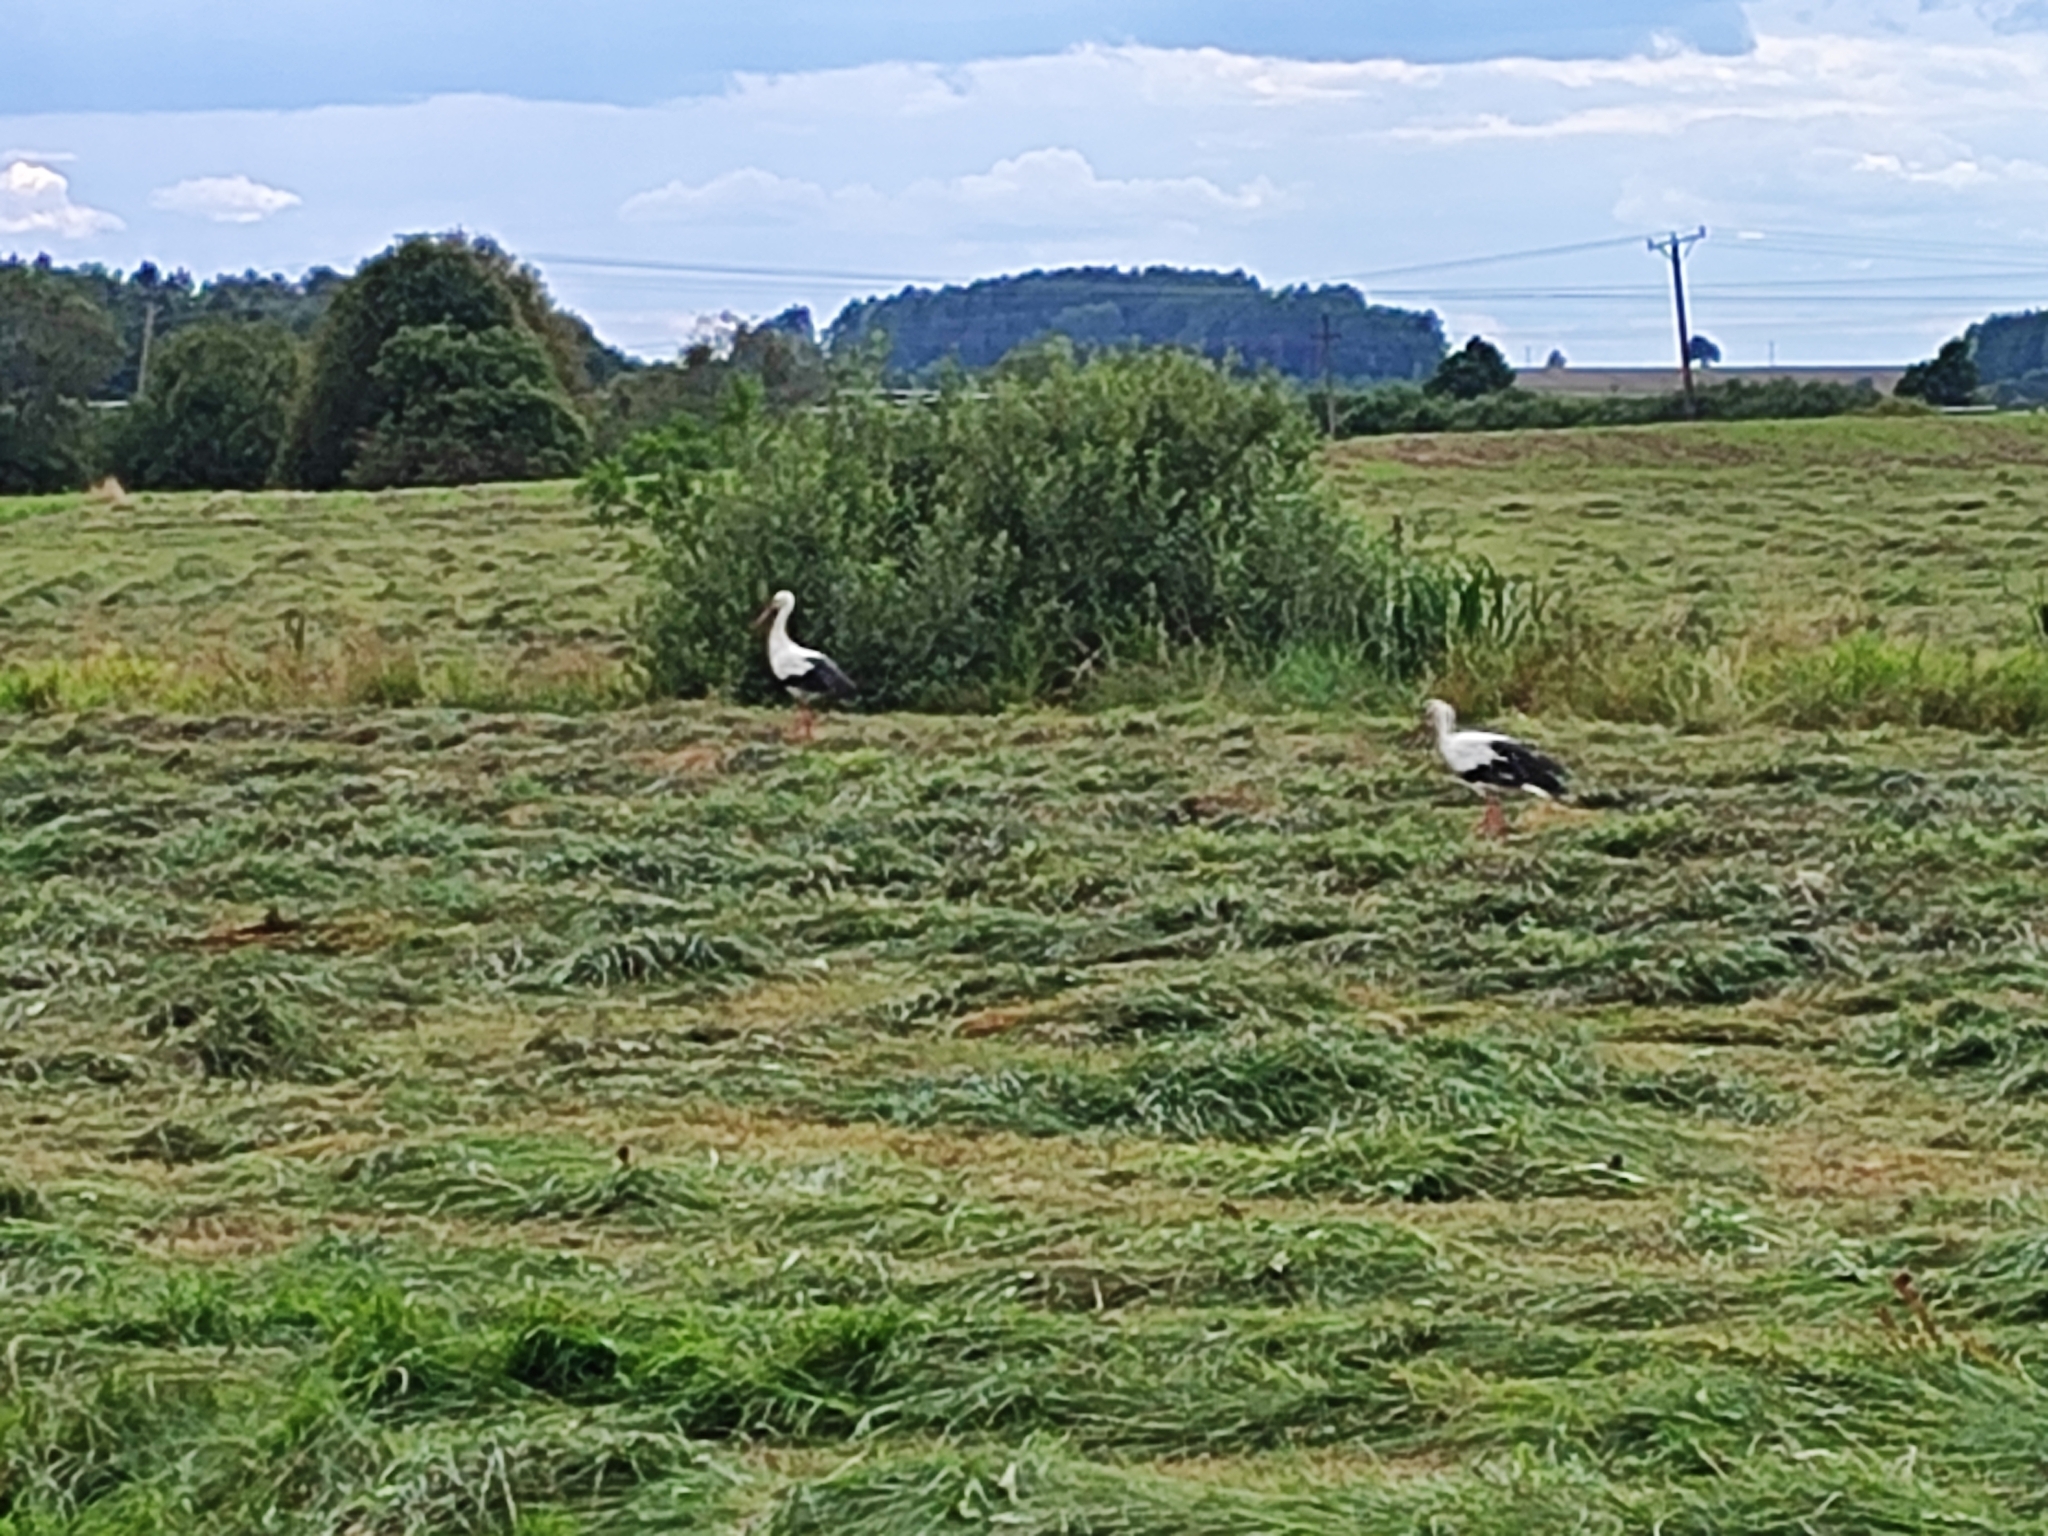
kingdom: Animalia
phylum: Chordata
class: Aves
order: Ciconiiformes
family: Ciconiidae
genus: Ciconia
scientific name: Ciconia ciconia
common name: White stork
